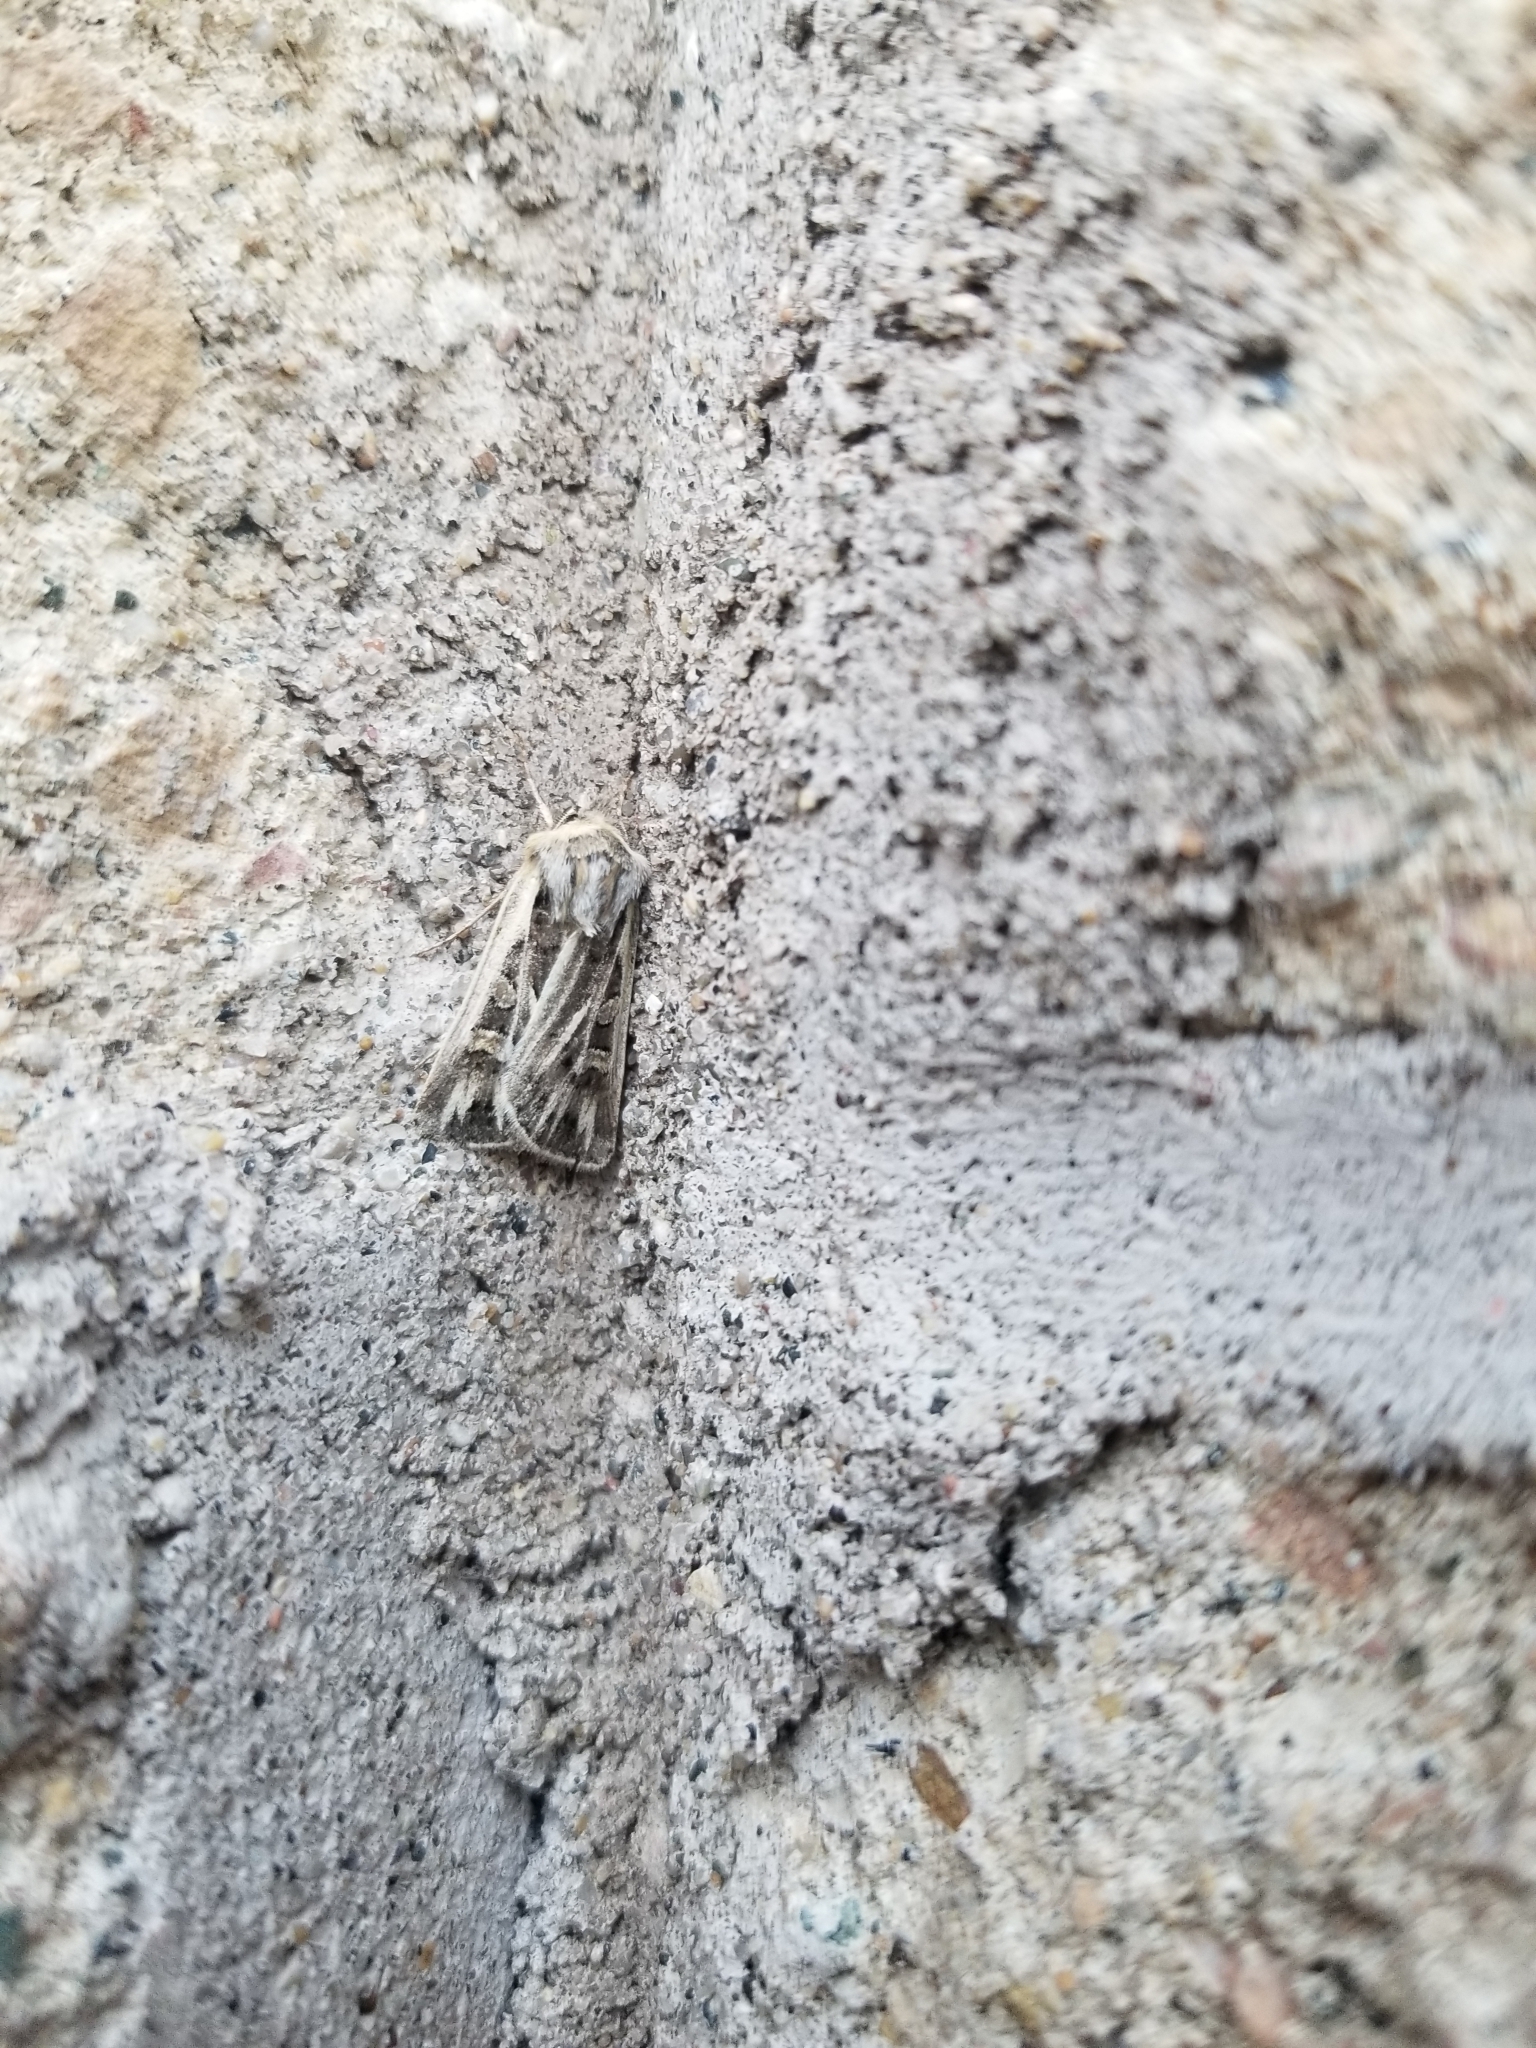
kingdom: Animalia
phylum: Arthropoda
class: Insecta
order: Lepidoptera
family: Noctuidae
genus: Euxoa
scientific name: Euxoa quadridentata
